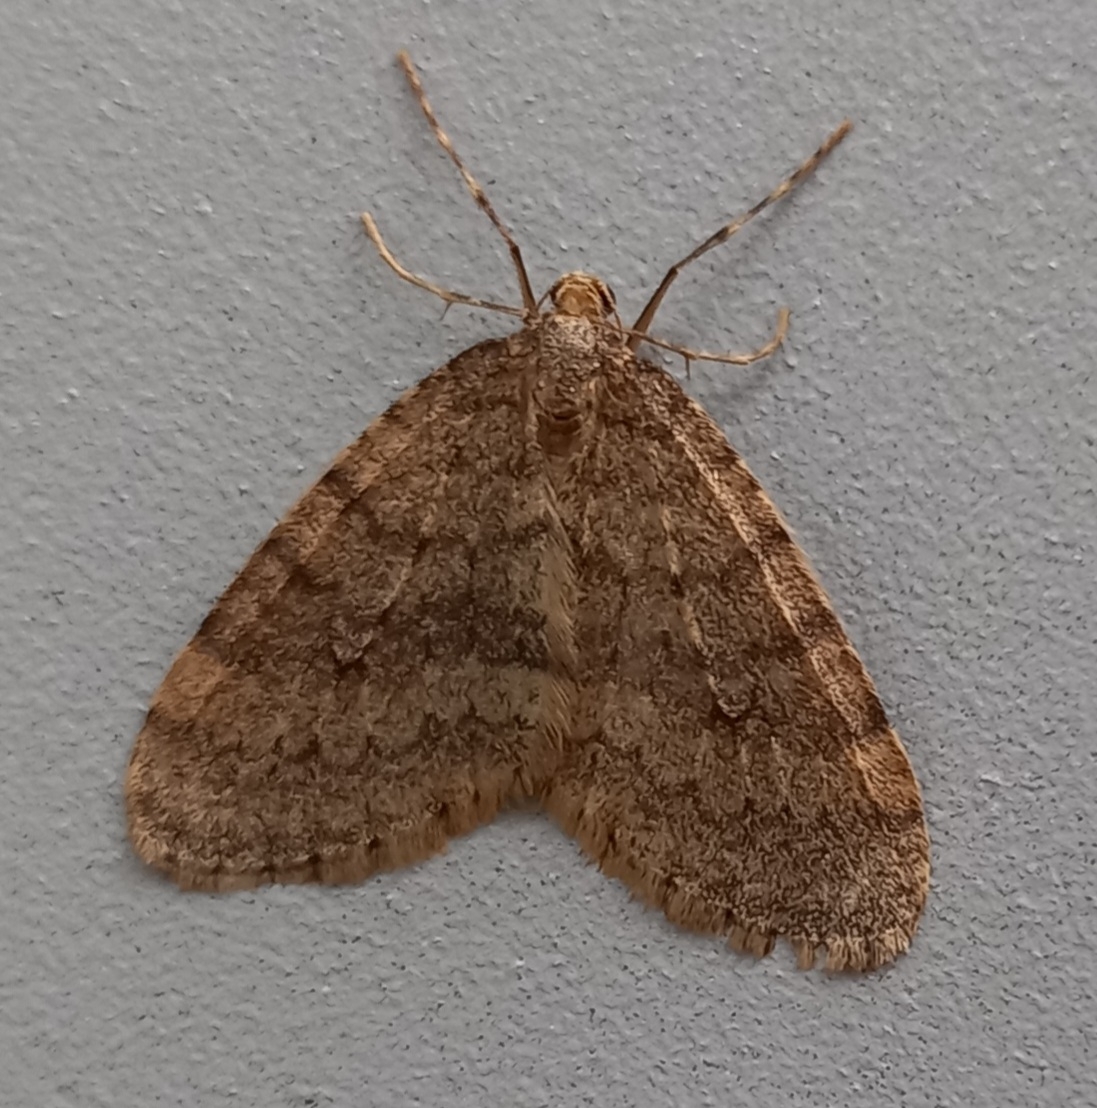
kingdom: Animalia
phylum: Arthropoda
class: Insecta
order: Lepidoptera
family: Geometridae
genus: Operophtera
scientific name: Operophtera brumata
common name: Winter moth
